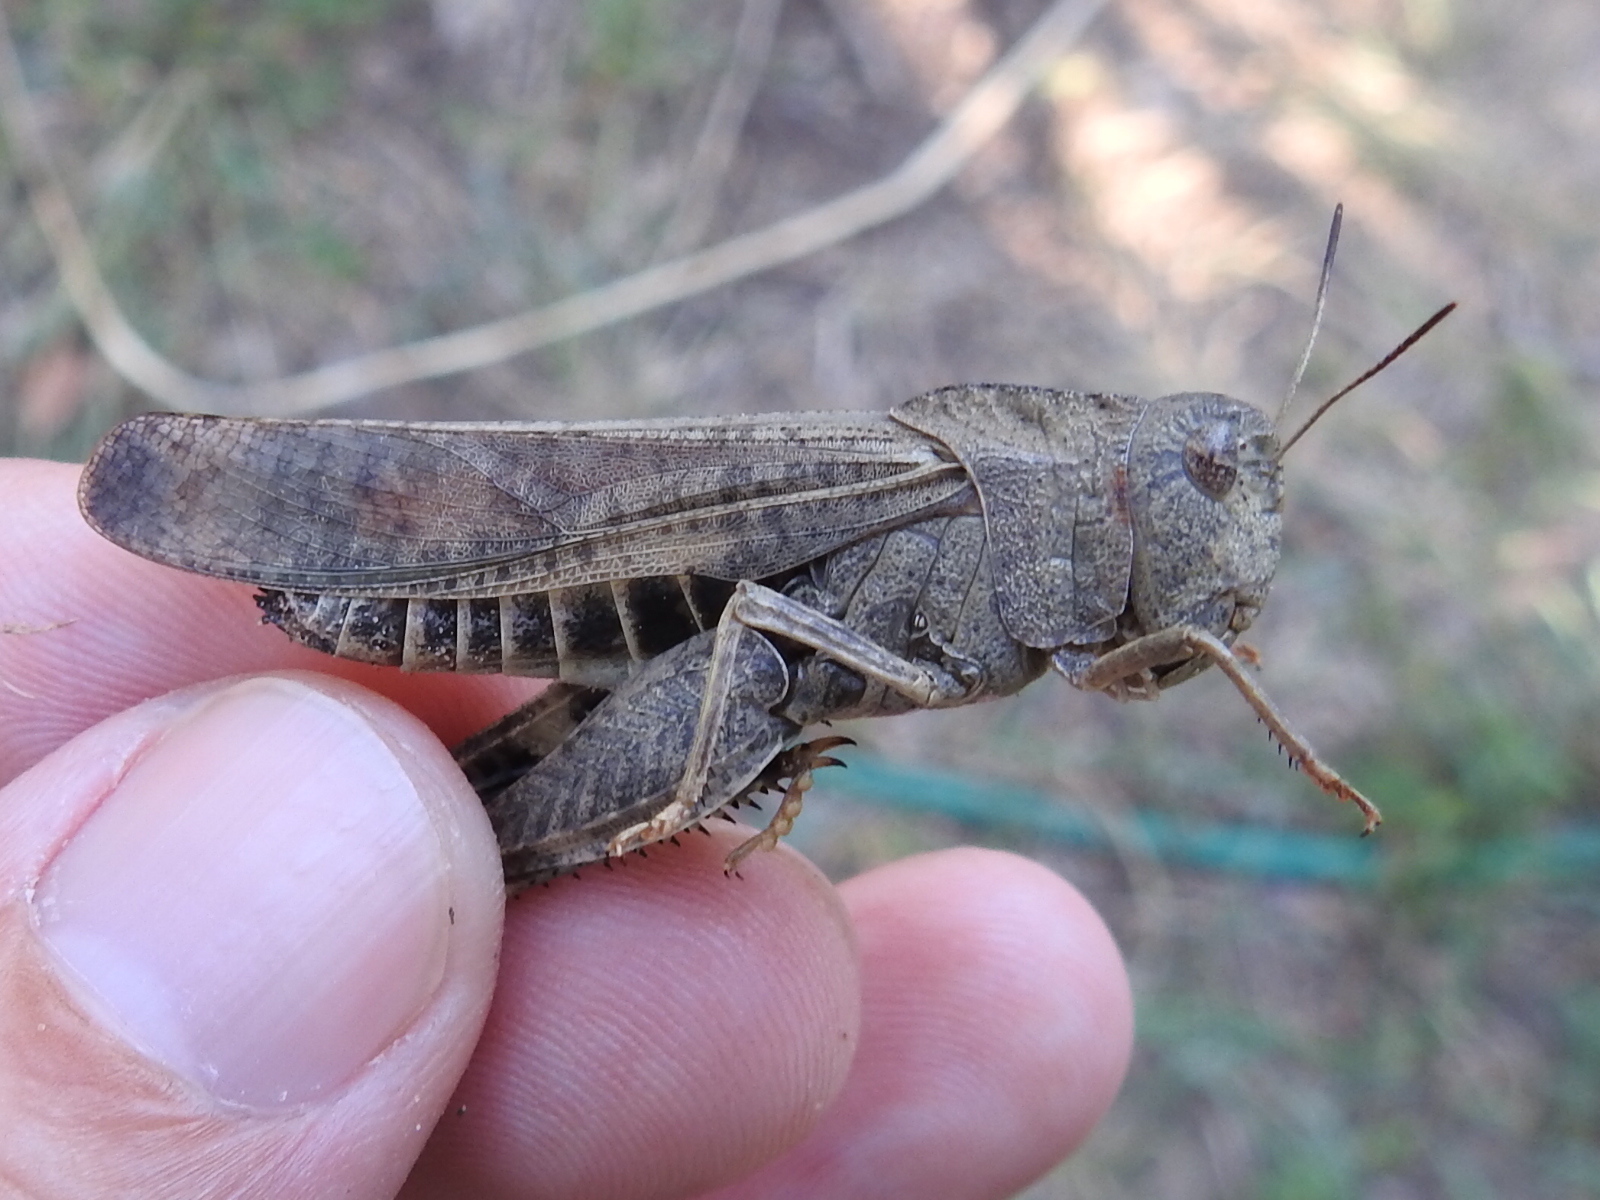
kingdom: Animalia
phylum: Arthropoda
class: Insecta
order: Orthoptera
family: Acrididae
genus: Arphia
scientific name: Arphia simplex
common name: Plains yellow-winged grasshopper
